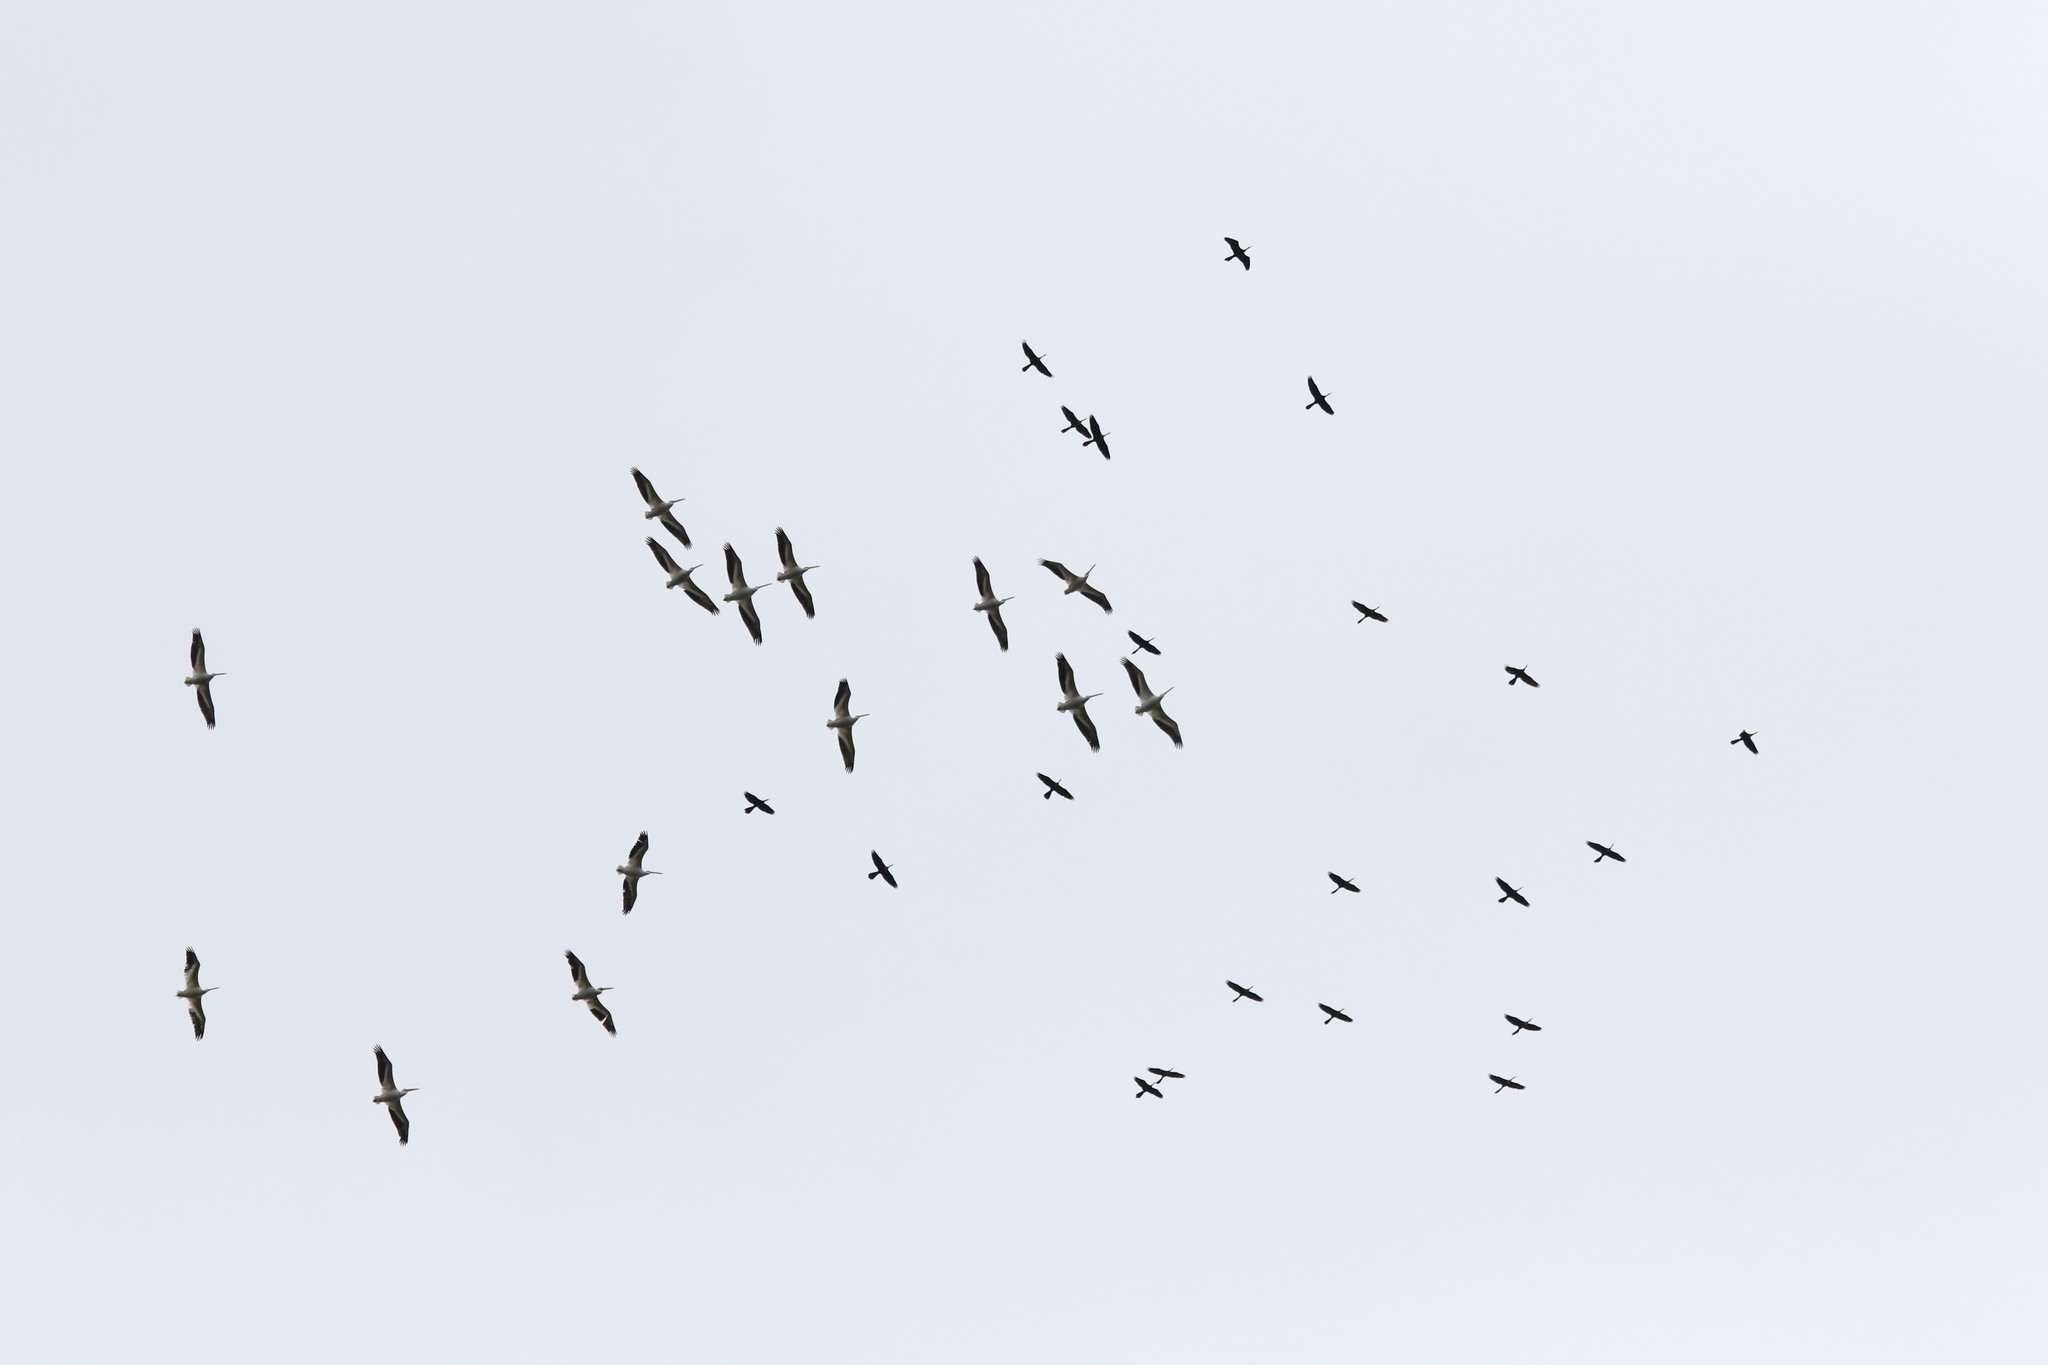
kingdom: Animalia
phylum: Chordata
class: Aves
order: Pelecaniformes
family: Pelecanidae
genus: Pelecanus
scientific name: Pelecanus erythrorhynchos
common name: American white pelican
